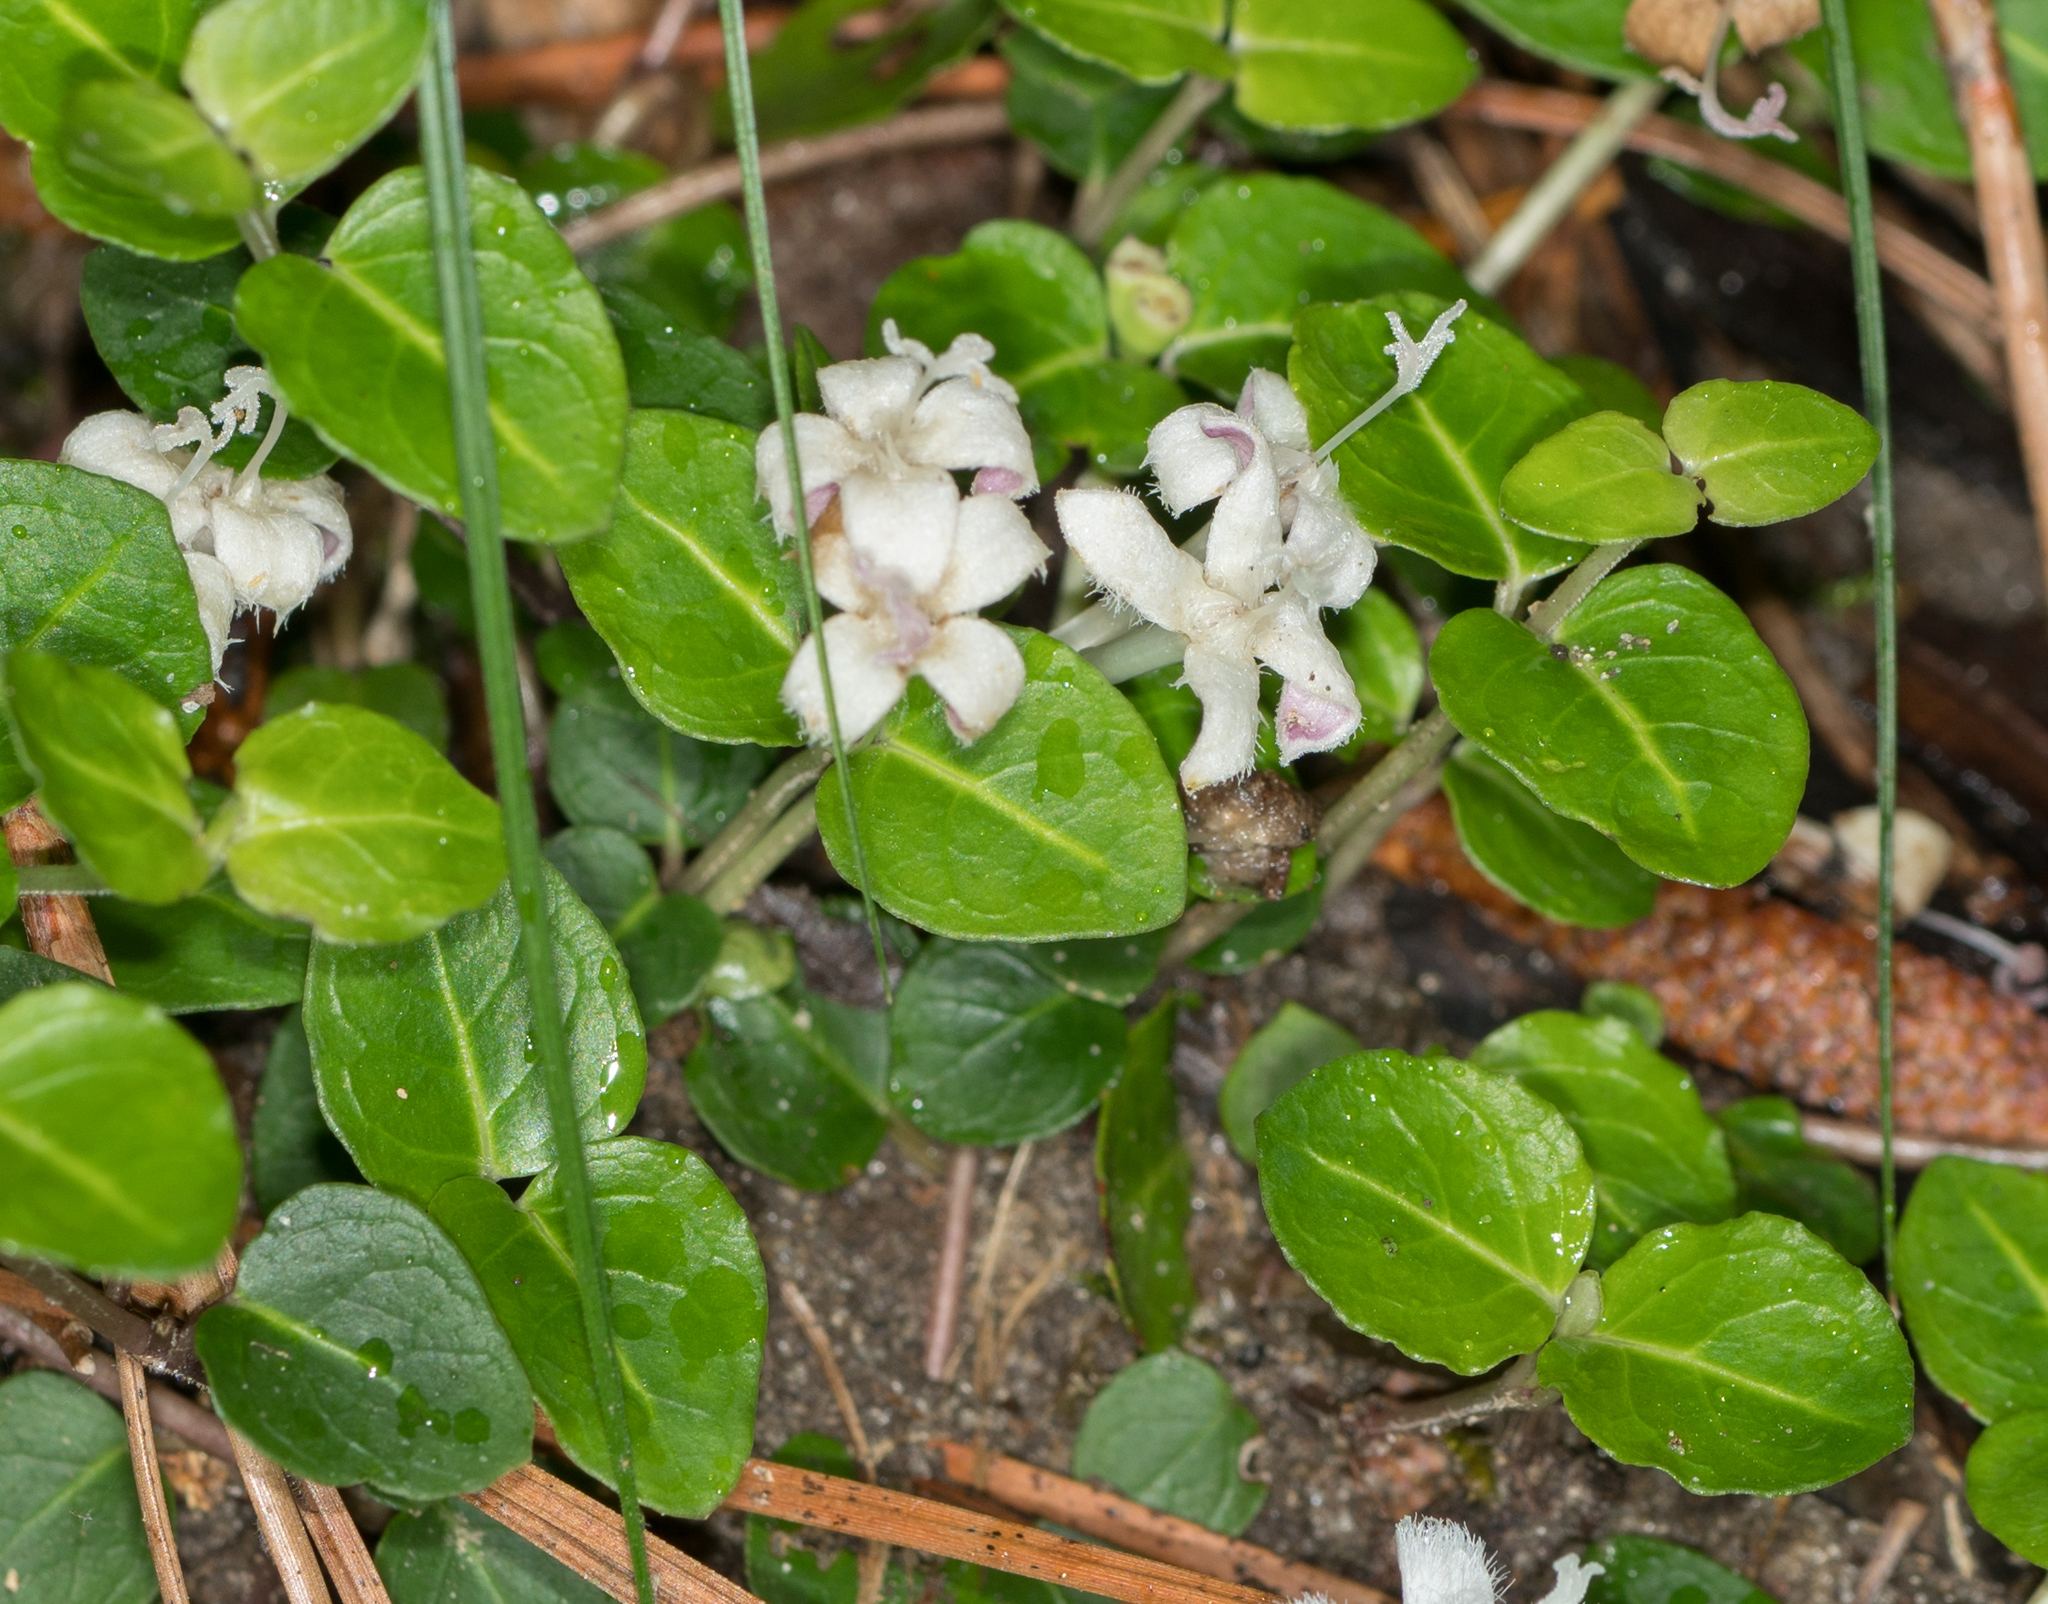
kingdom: Plantae
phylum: Tracheophyta
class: Magnoliopsida
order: Gentianales
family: Rubiaceae
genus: Mitchella
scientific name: Mitchella repens
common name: Partridge-berry
